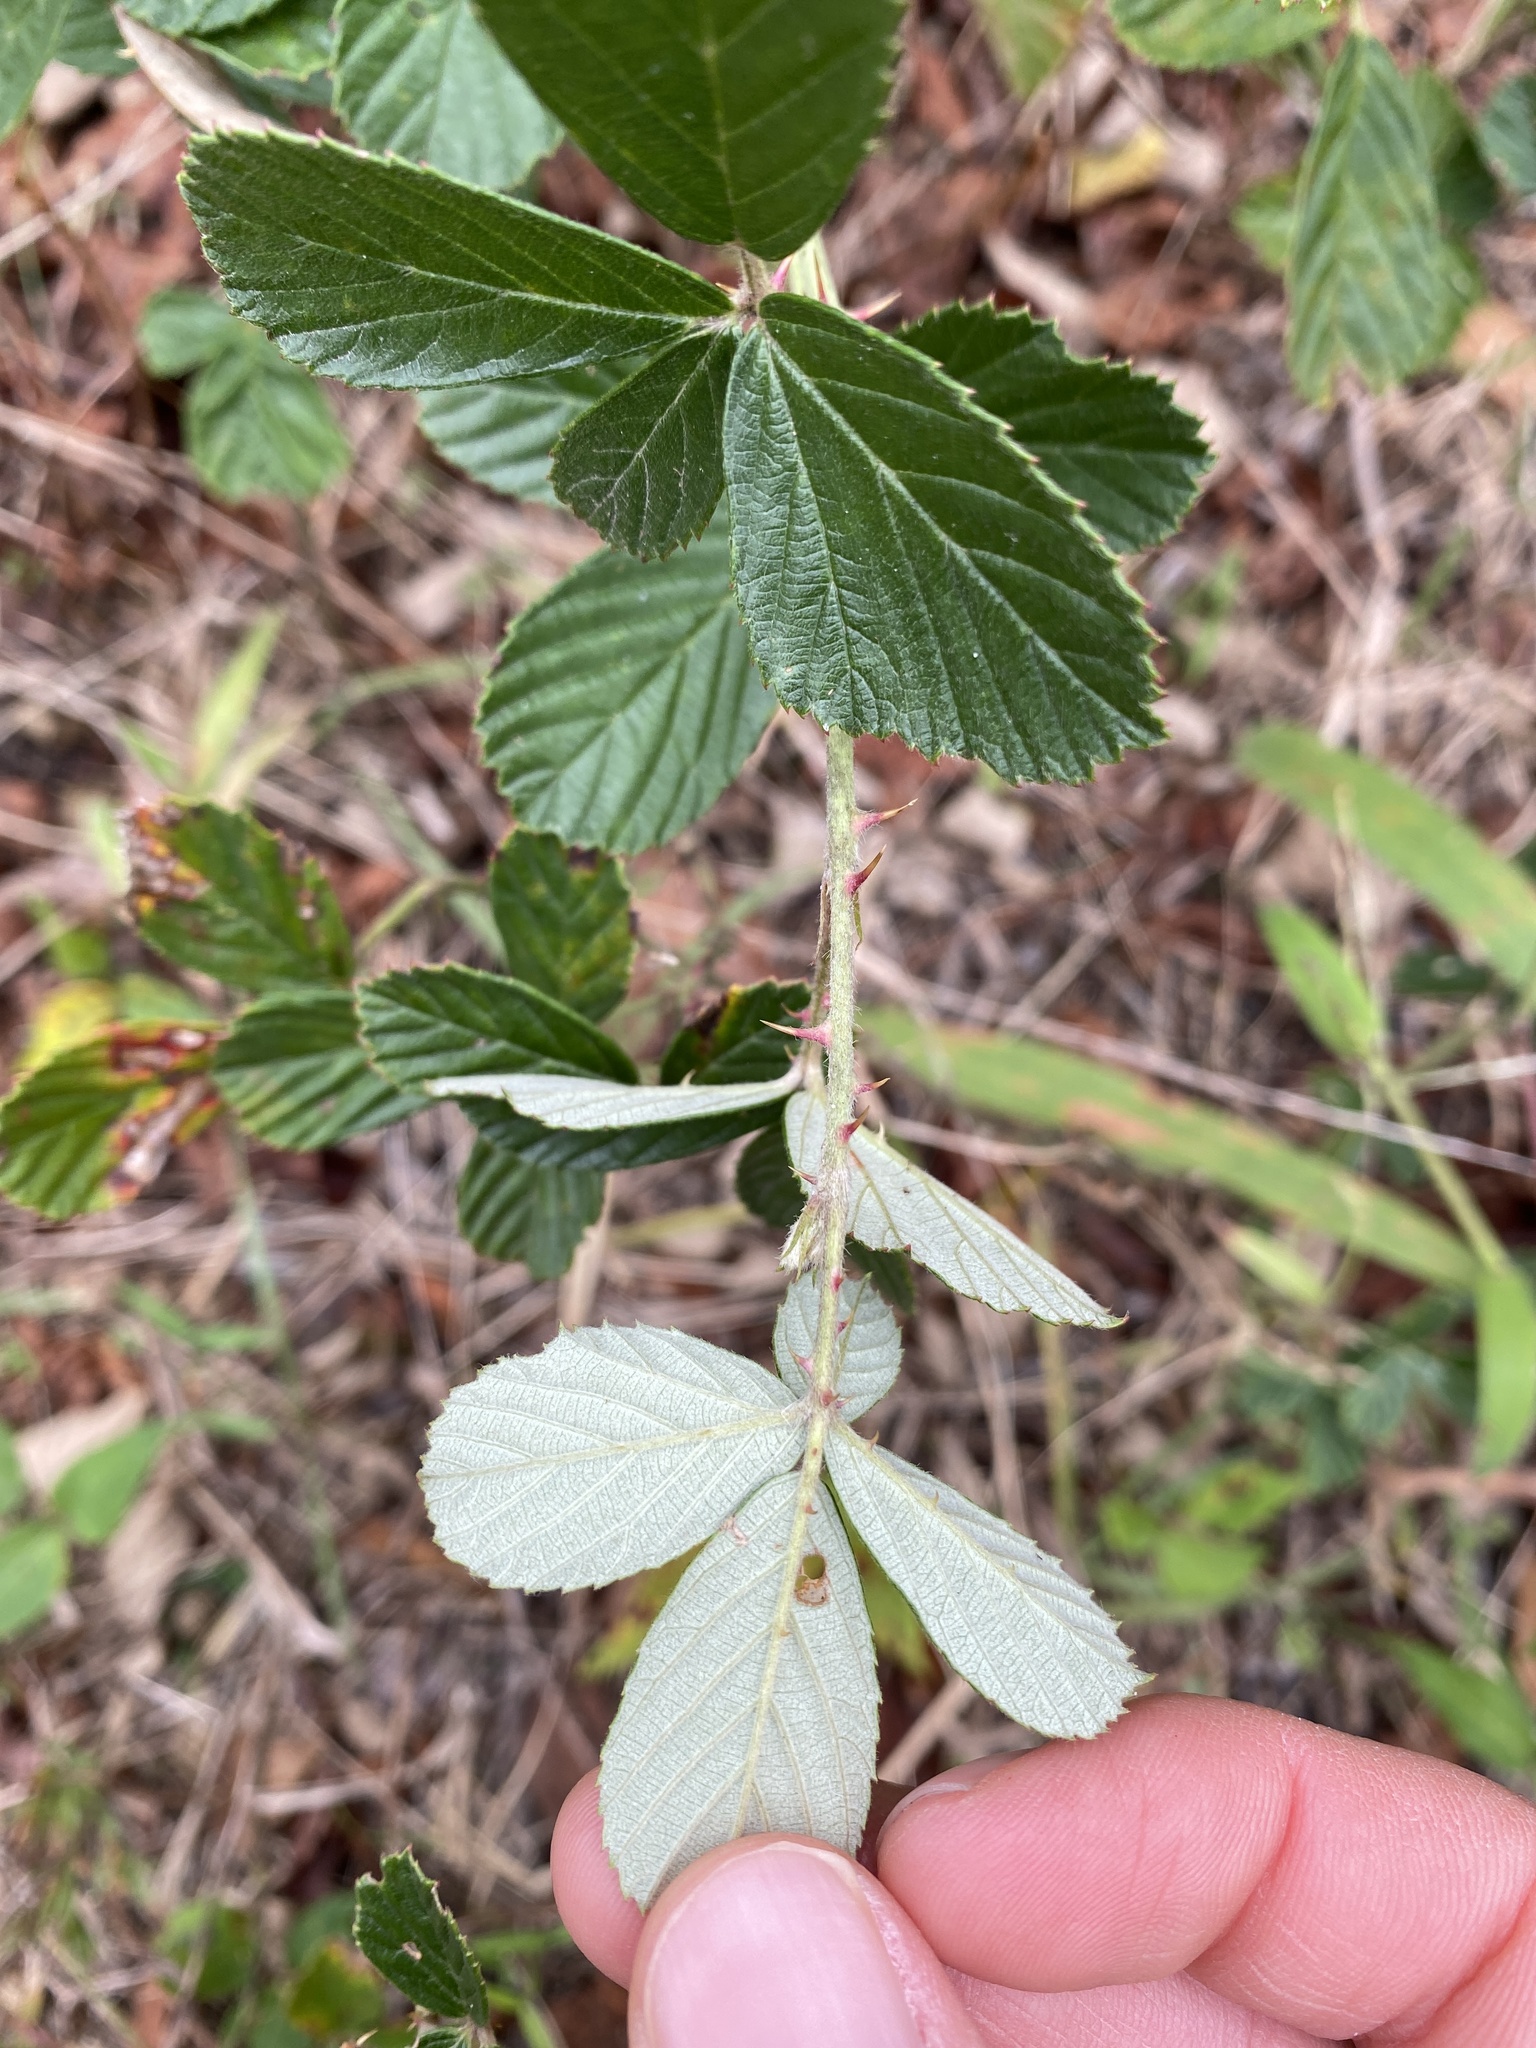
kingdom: Plantae
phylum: Tracheophyta
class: Magnoliopsida
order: Rosales
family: Rosaceae
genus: Rubus
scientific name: Rubus cuneifolius
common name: American bramble
